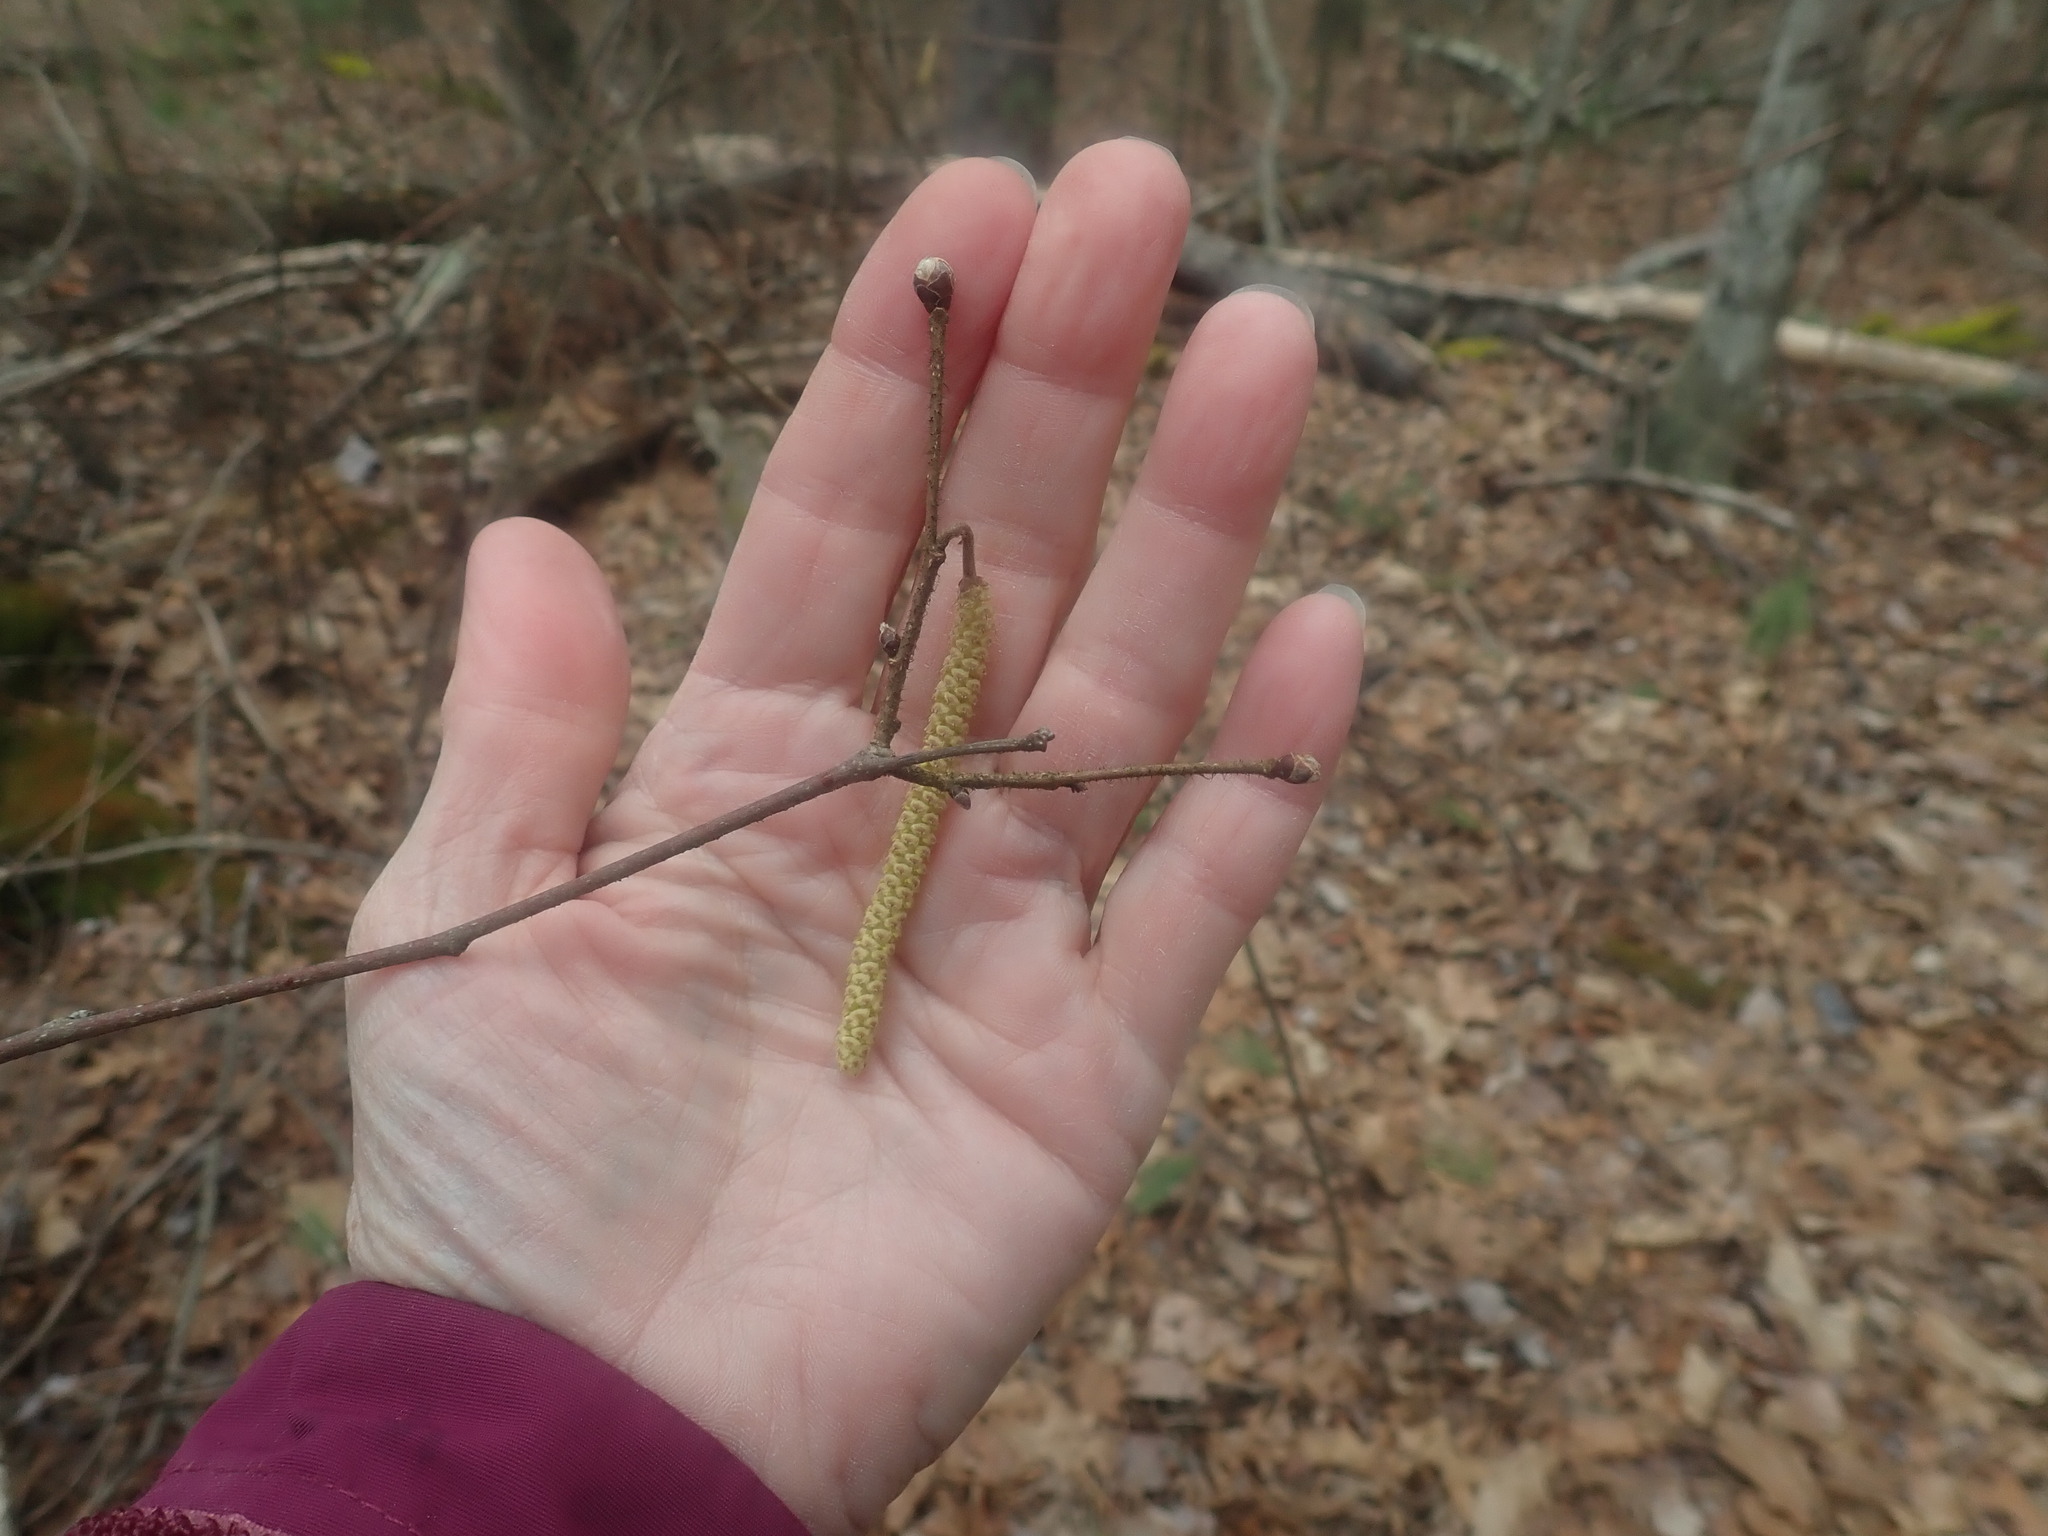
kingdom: Plantae
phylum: Tracheophyta
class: Magnoliopsida
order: Fagales
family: Betulaceae
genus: Corylus
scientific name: Corylus americana
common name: American hazel
